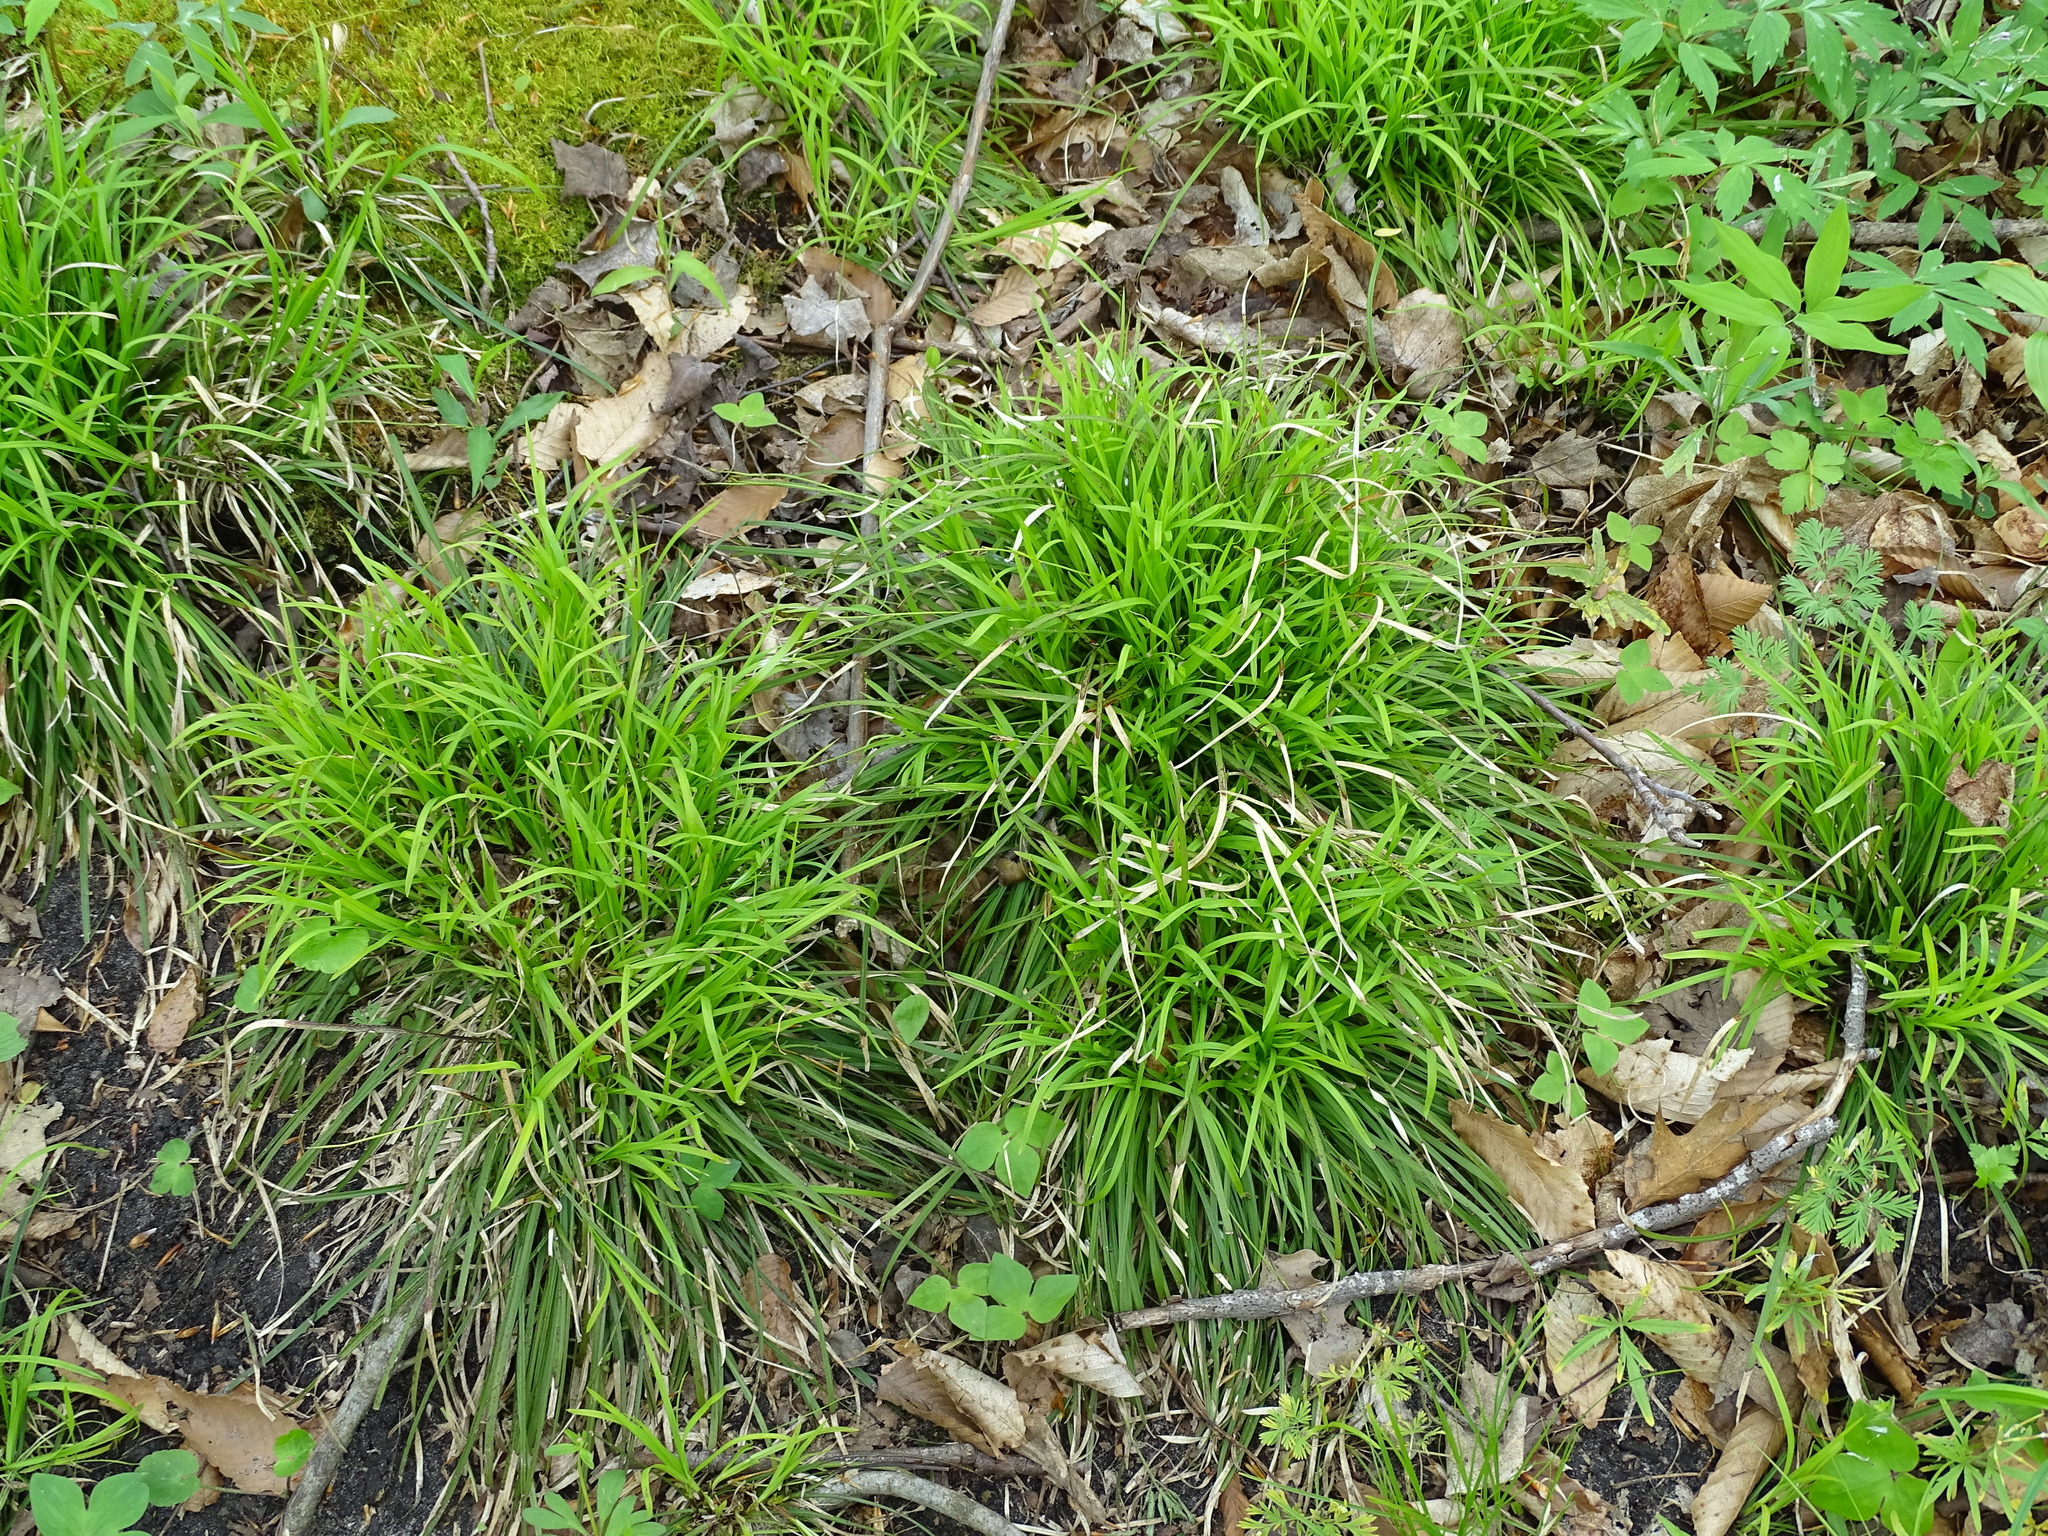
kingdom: Plantae
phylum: Tracheophyta
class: Liliopsida
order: Poales
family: Cyperaceae
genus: Carex
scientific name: Carex pedunculata
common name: Pedunculate sedge
